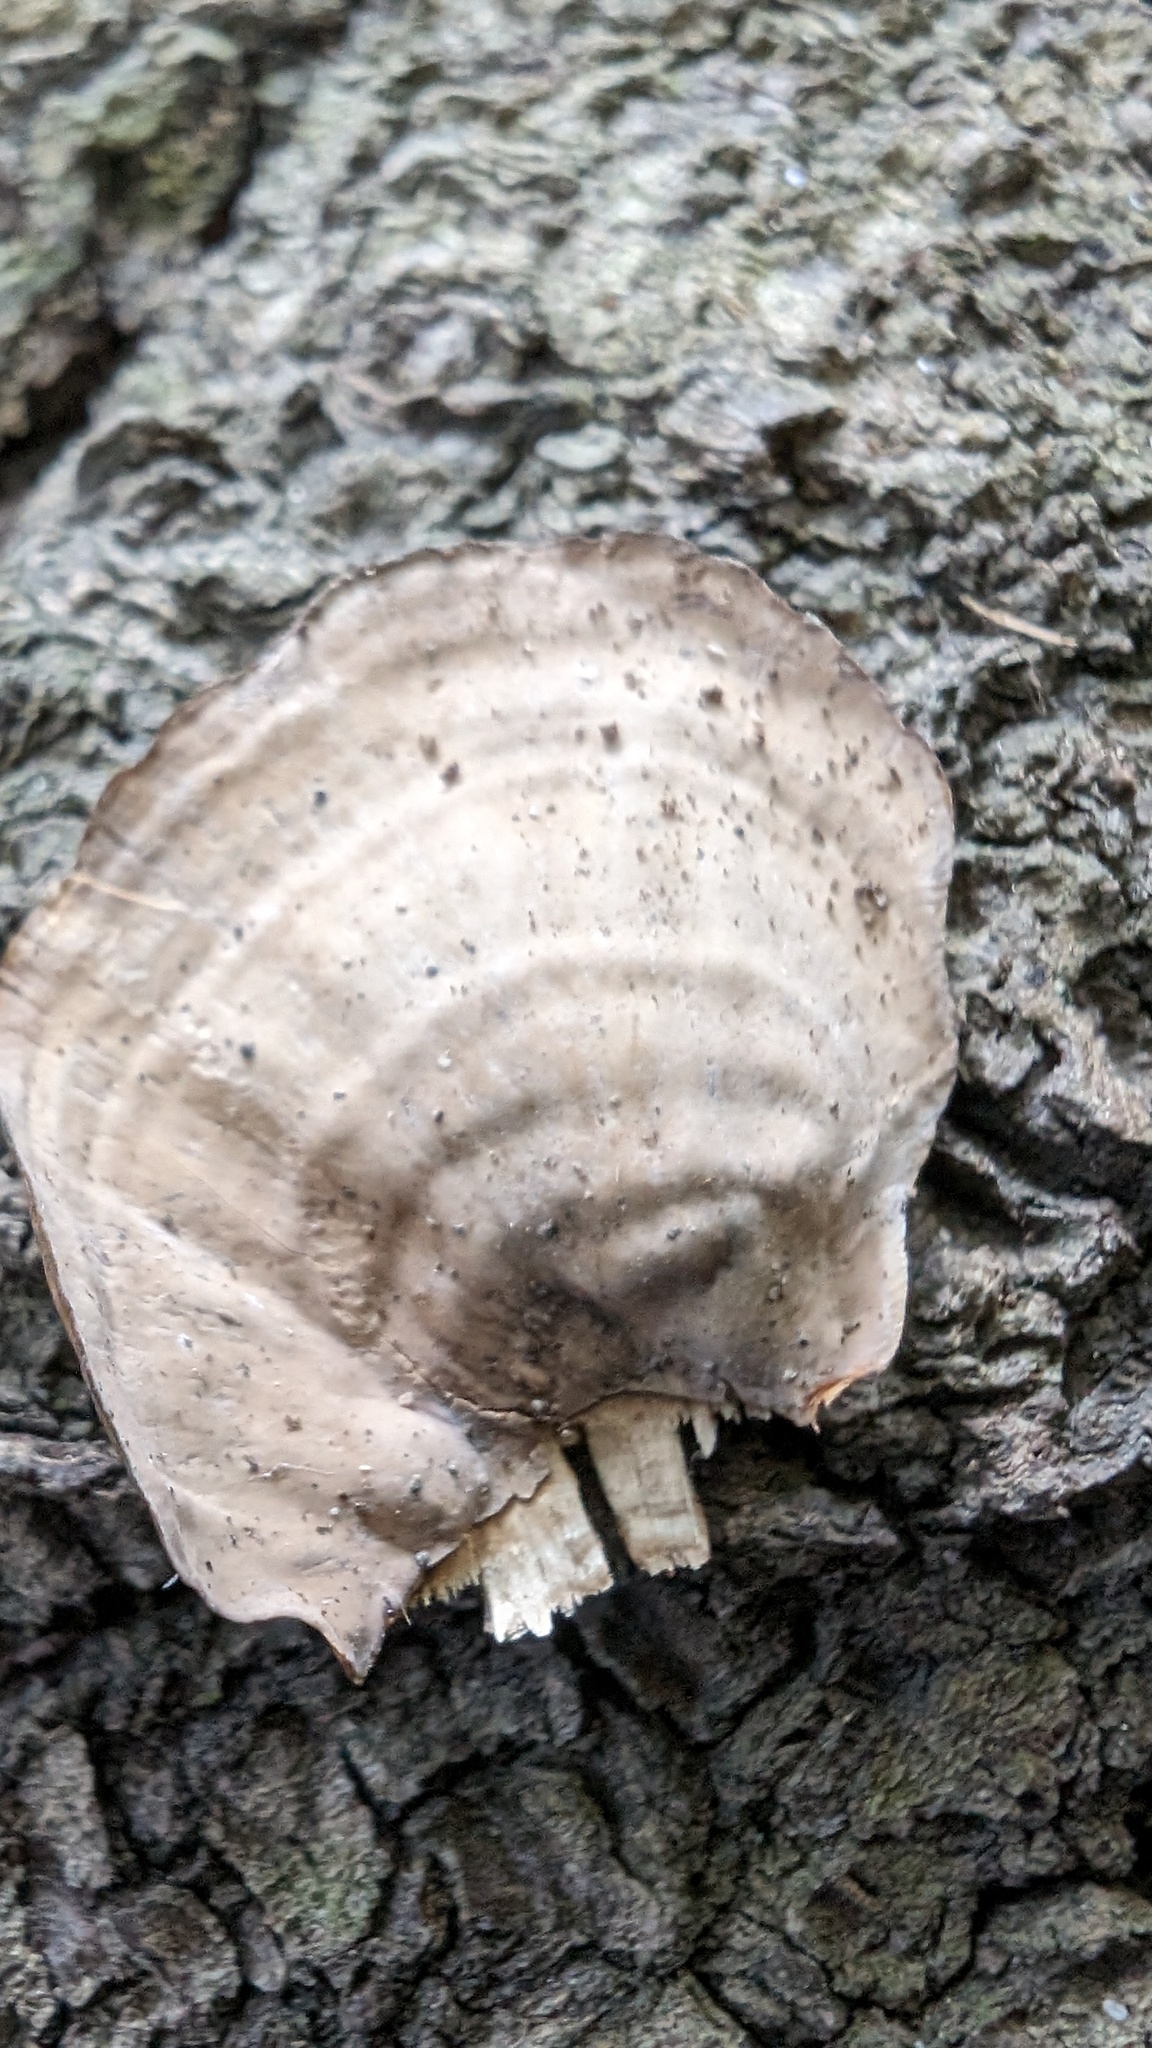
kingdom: Fungi
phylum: Basidiomycota
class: Agaricomycetes
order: Russulales
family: Stereaceae
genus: Stereum
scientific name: Stereum ostrea
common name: False turkeytail
